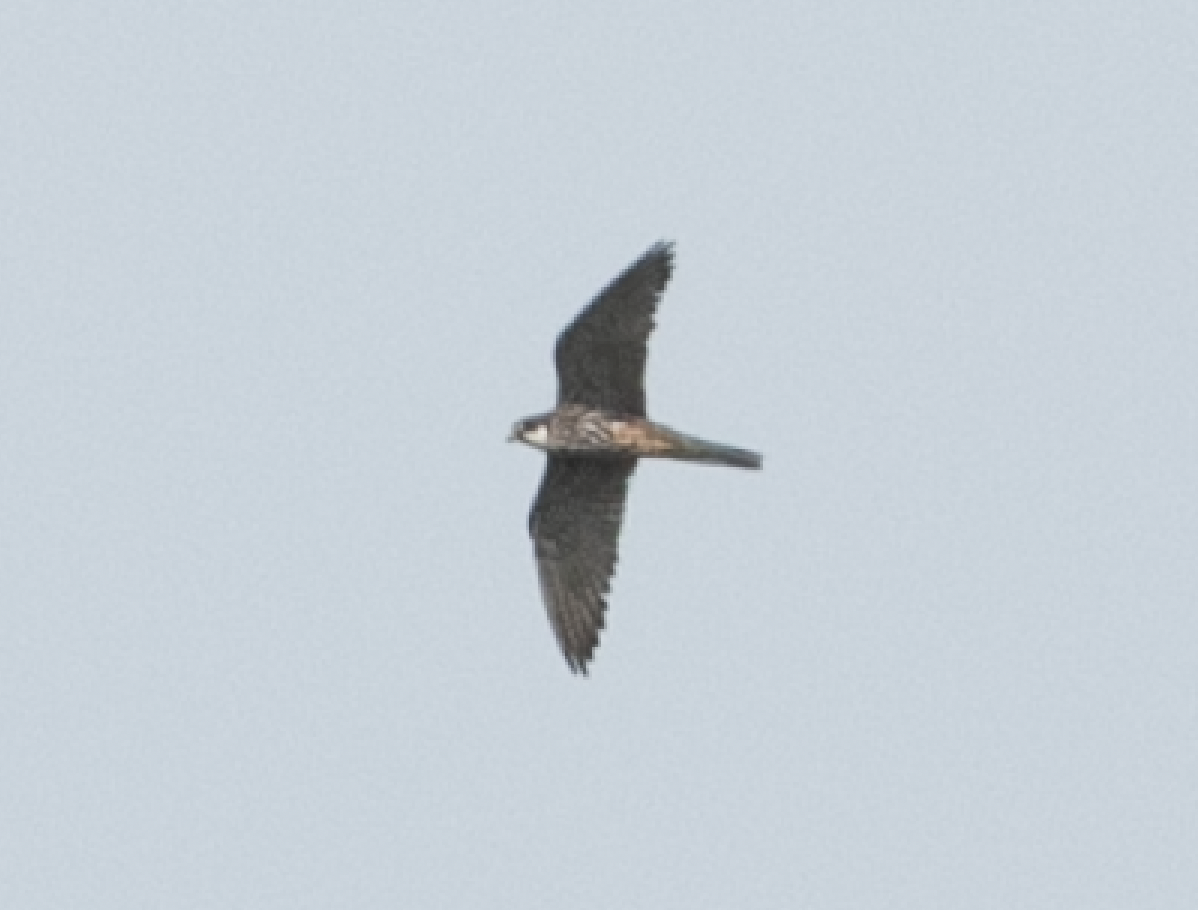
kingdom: Animalia
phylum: Chordata
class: Aves
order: Falconiformes
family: Falconidae
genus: Falco
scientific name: Falco subbuteo
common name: Eurasian hobby
